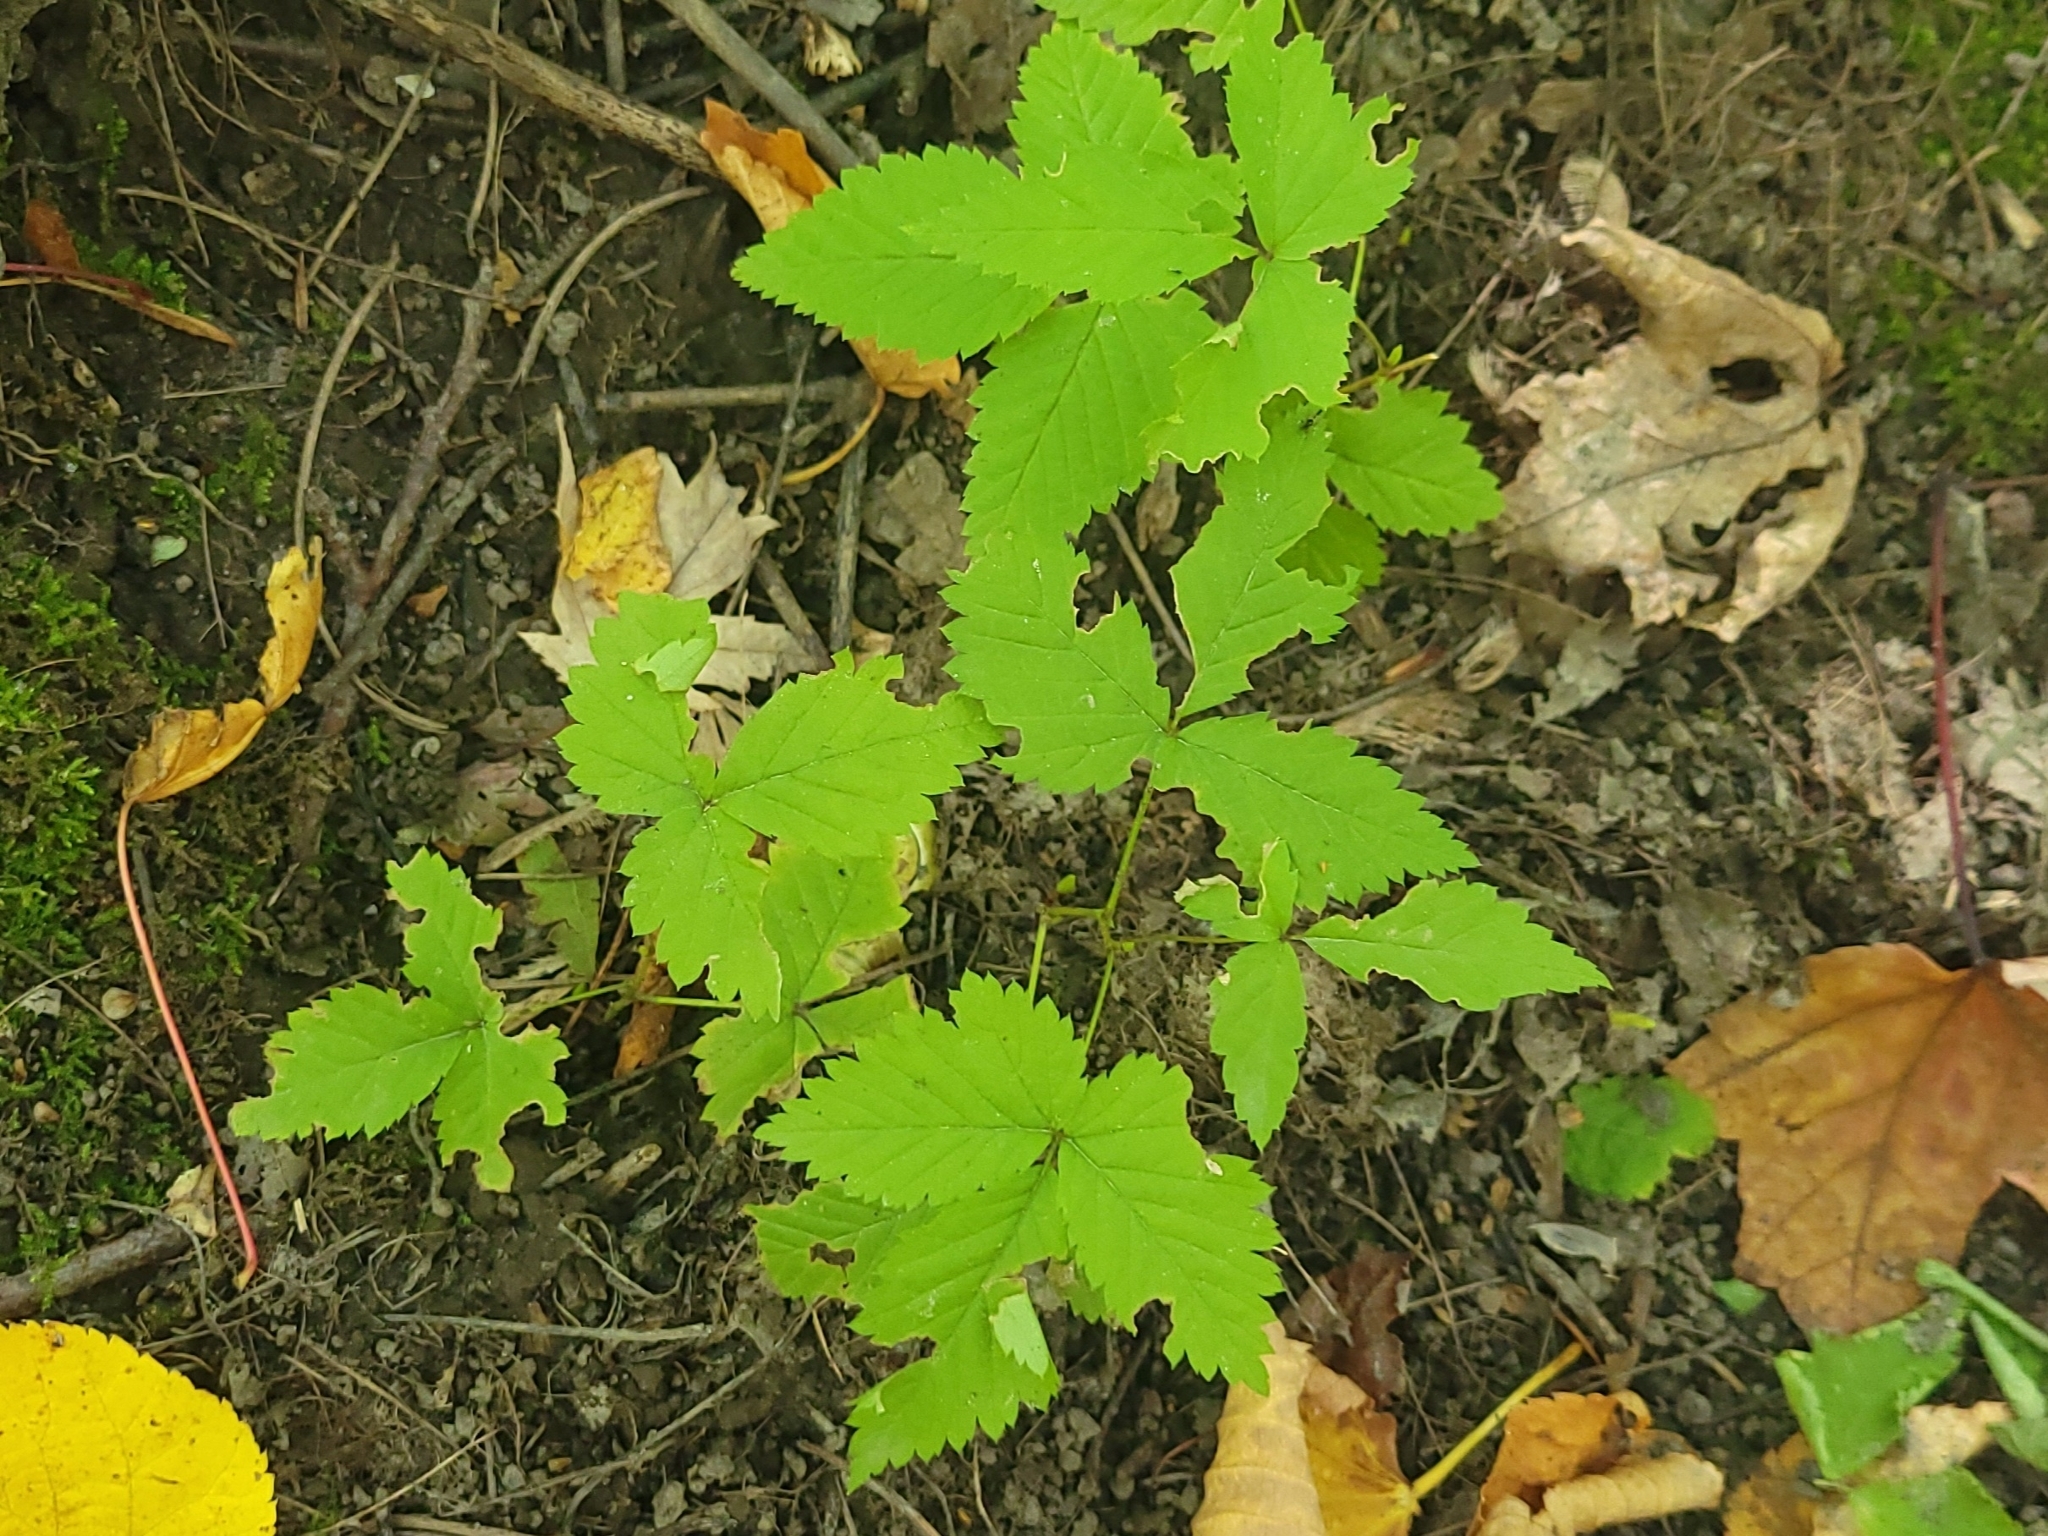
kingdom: Plantae
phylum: Tracheophyta
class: Magnoliopsida
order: Rosales
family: Rosaceae
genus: Rubus
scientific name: Rubus pubescens
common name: Dwarf raspberry
